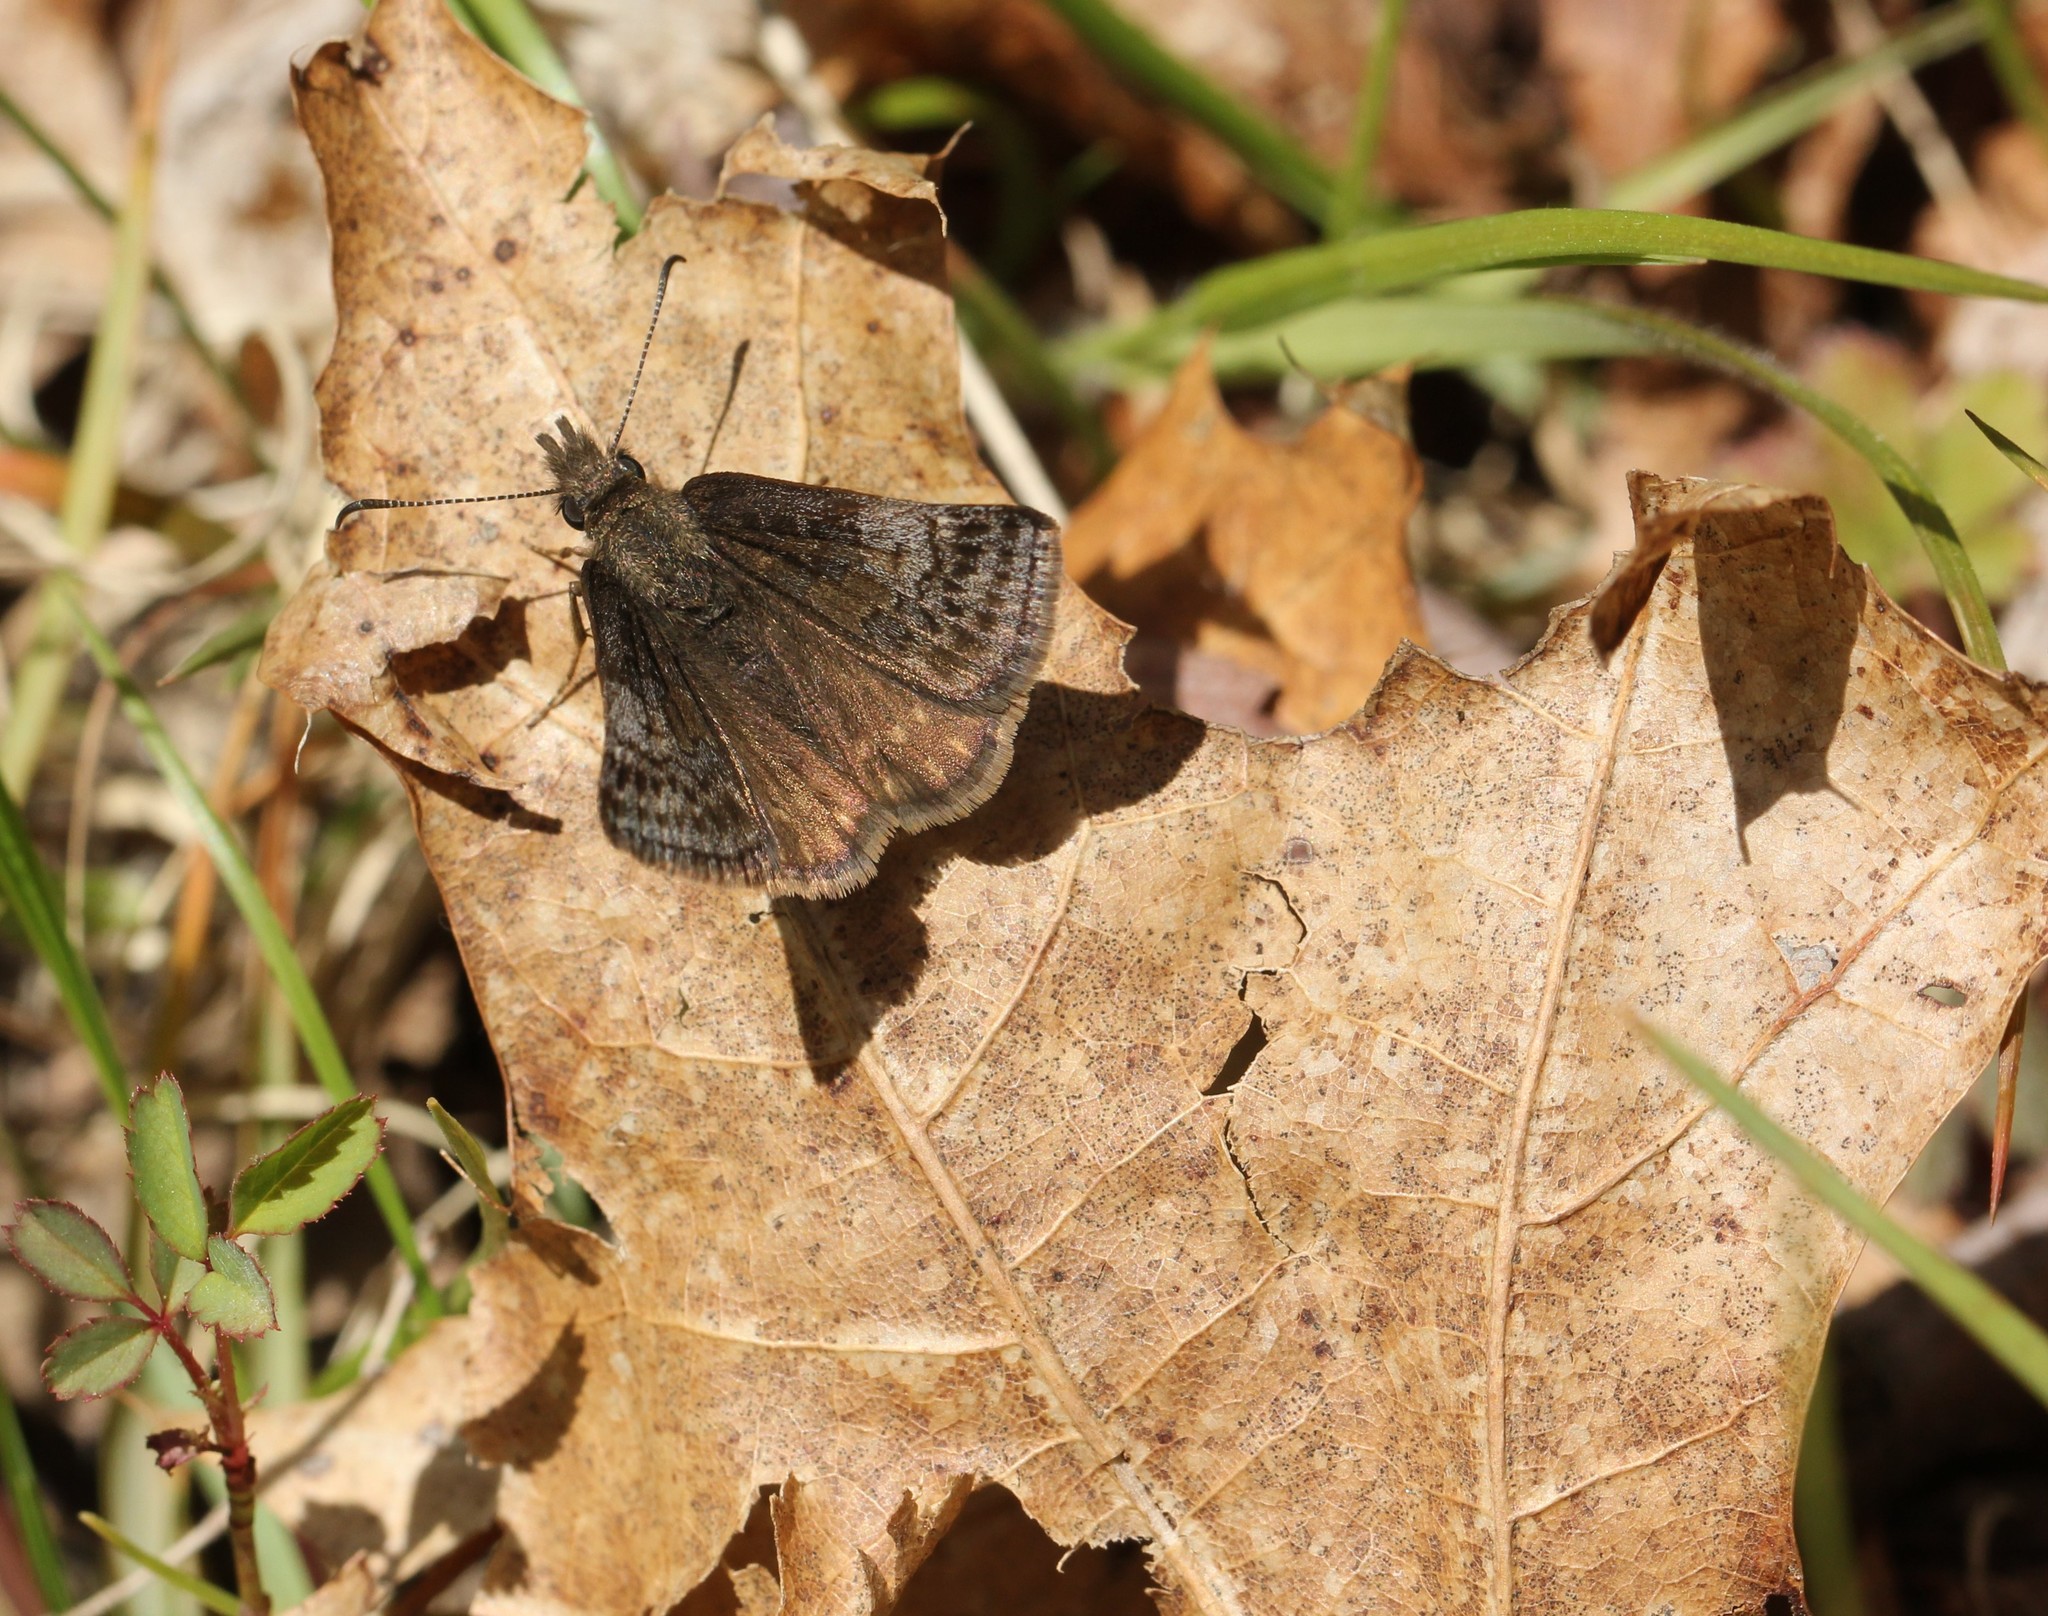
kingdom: Animalia
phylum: Arthropoda
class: Insecta
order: Lepidoptera
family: Hesperiidae
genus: Erynnis
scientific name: Erynnis icelus
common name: Dreamy duskywing
